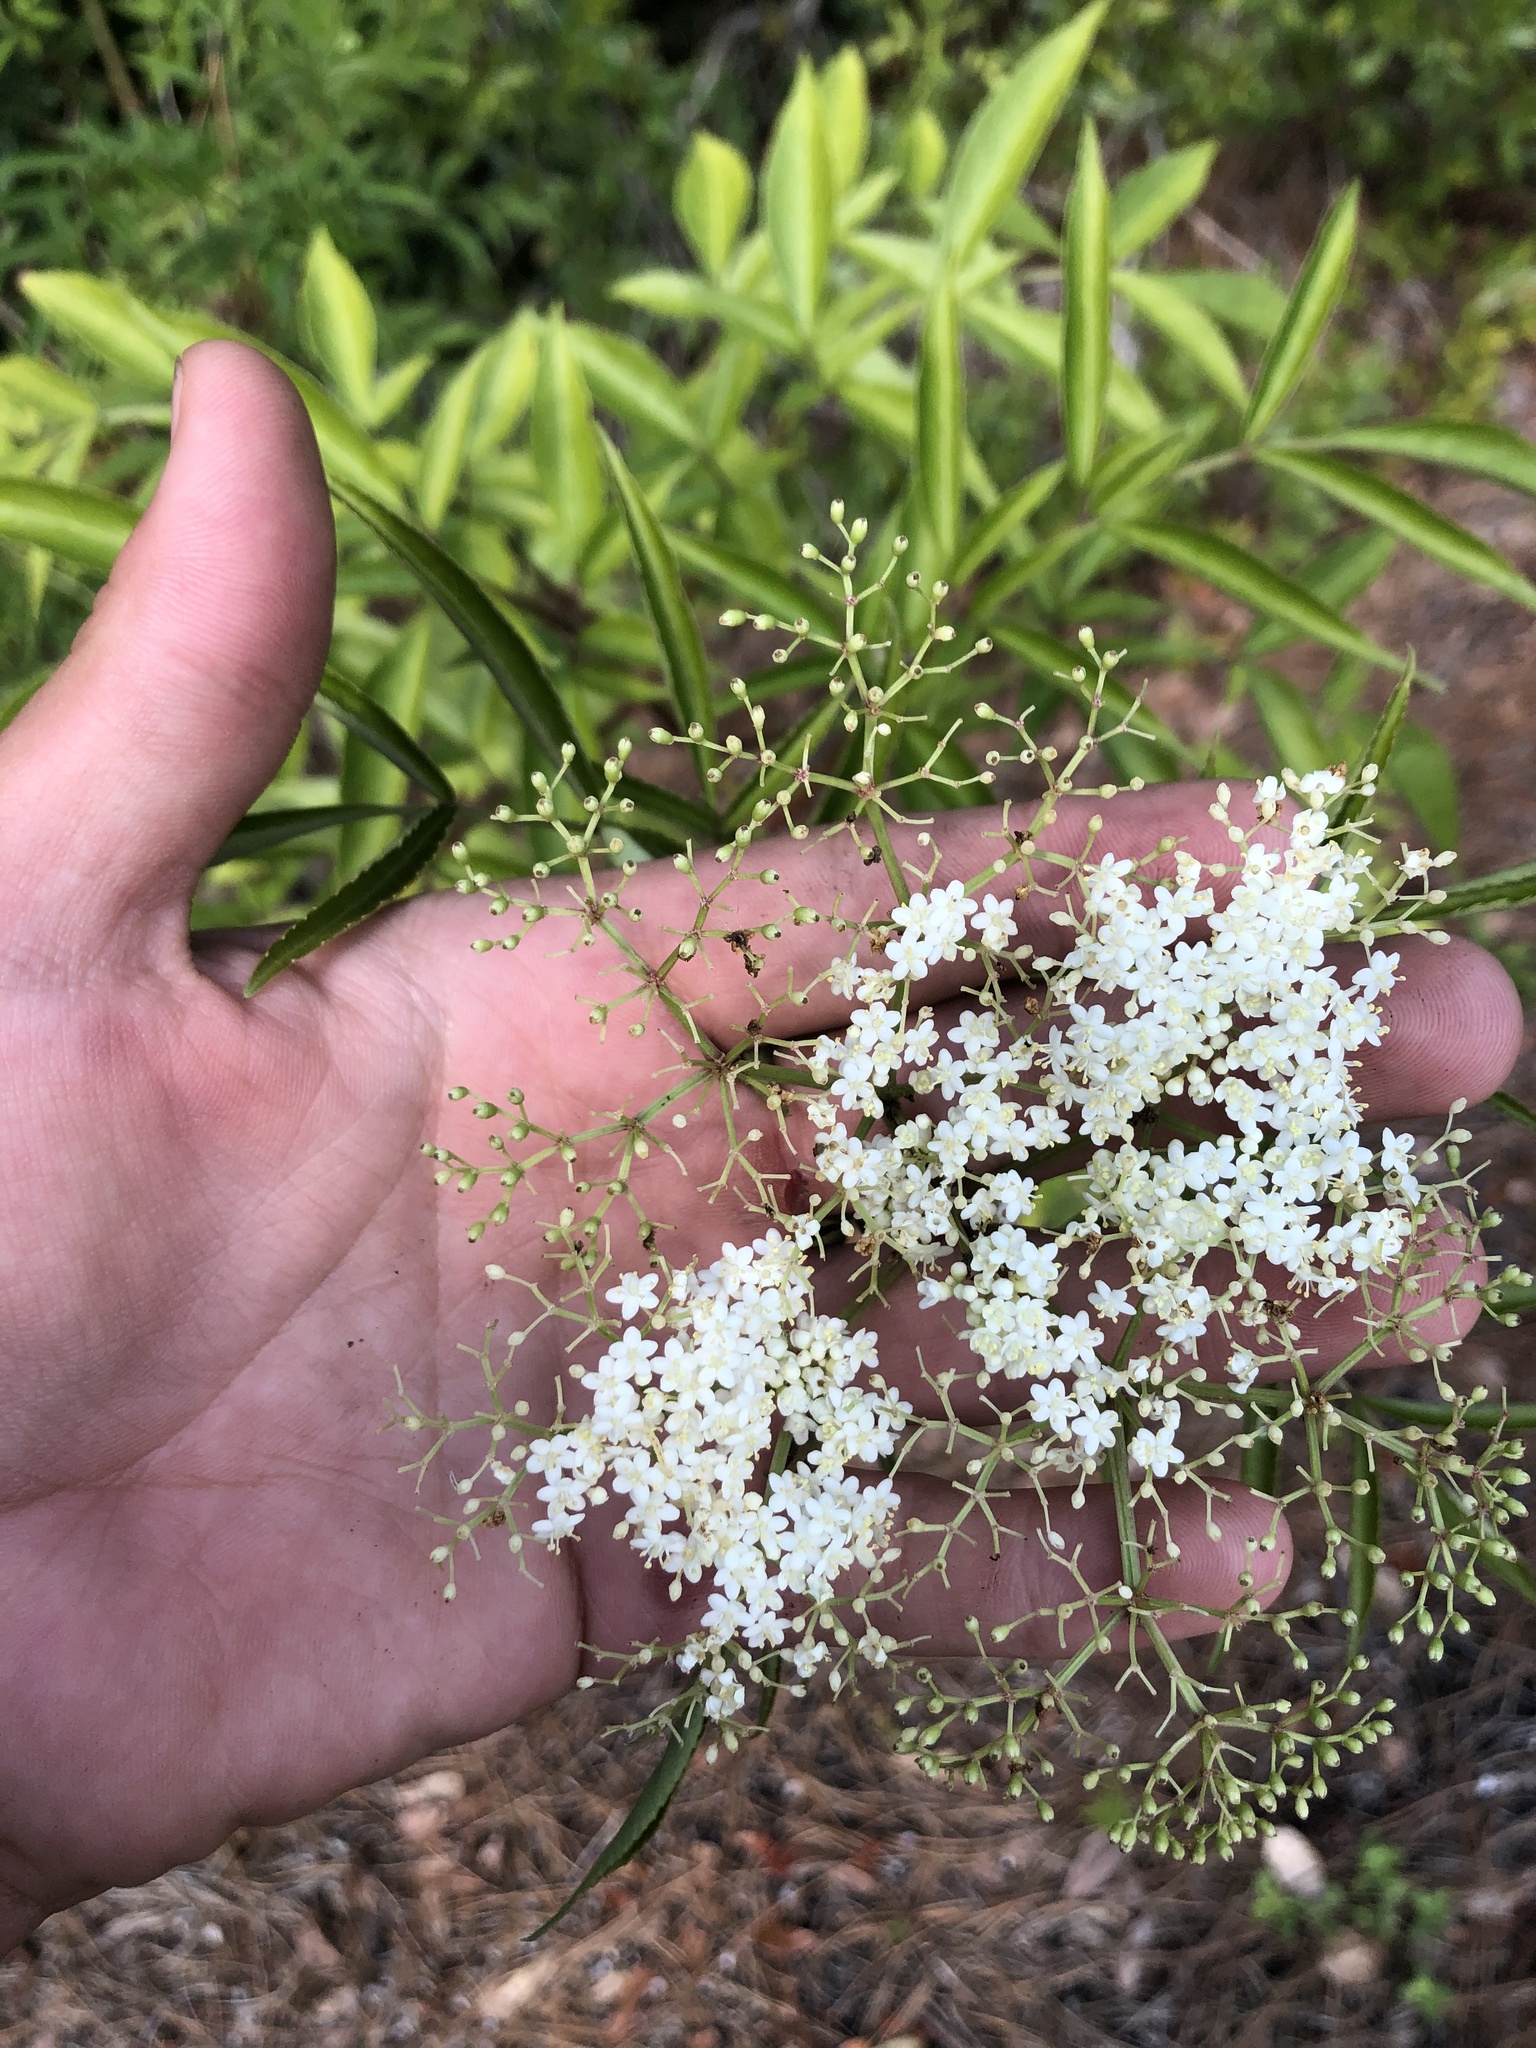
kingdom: Plantae
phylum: Tracheophyta
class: Magnoliopsida
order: Dipsacales
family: Viburnaceae
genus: Sambucus
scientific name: Sambucus canadensis
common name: American elder
